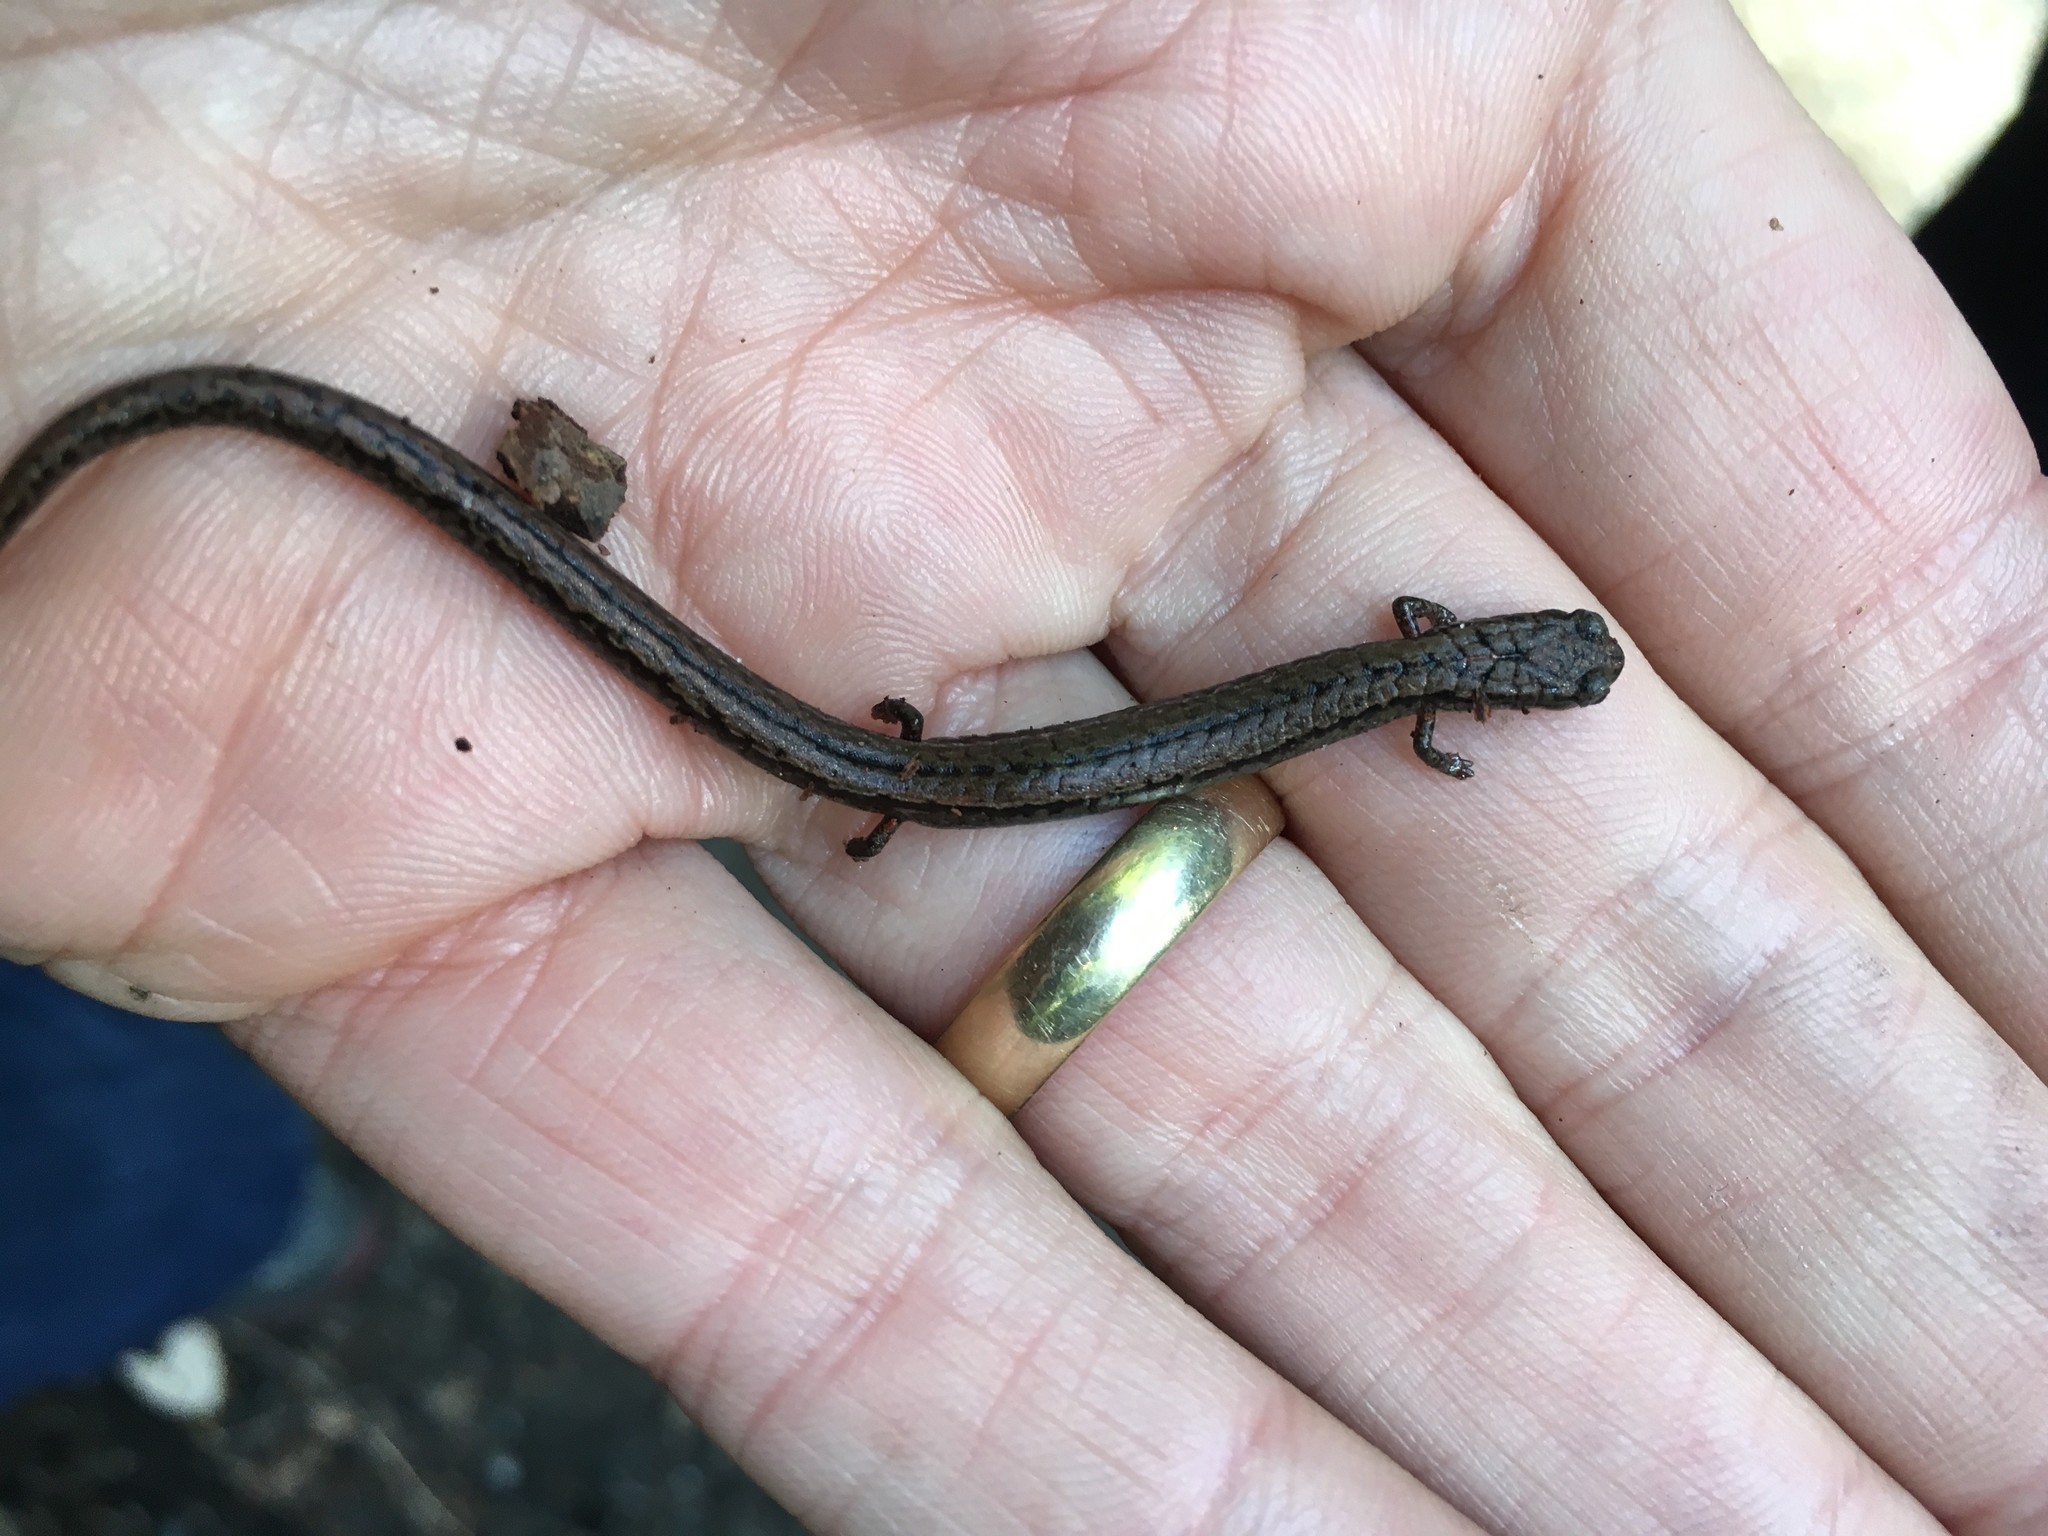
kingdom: Animalia
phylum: Chordata
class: Amphibia
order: Caudata
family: Plethodontidae
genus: Batrachoseps
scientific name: Batrachoseps attenuatus
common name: California slender salamander
